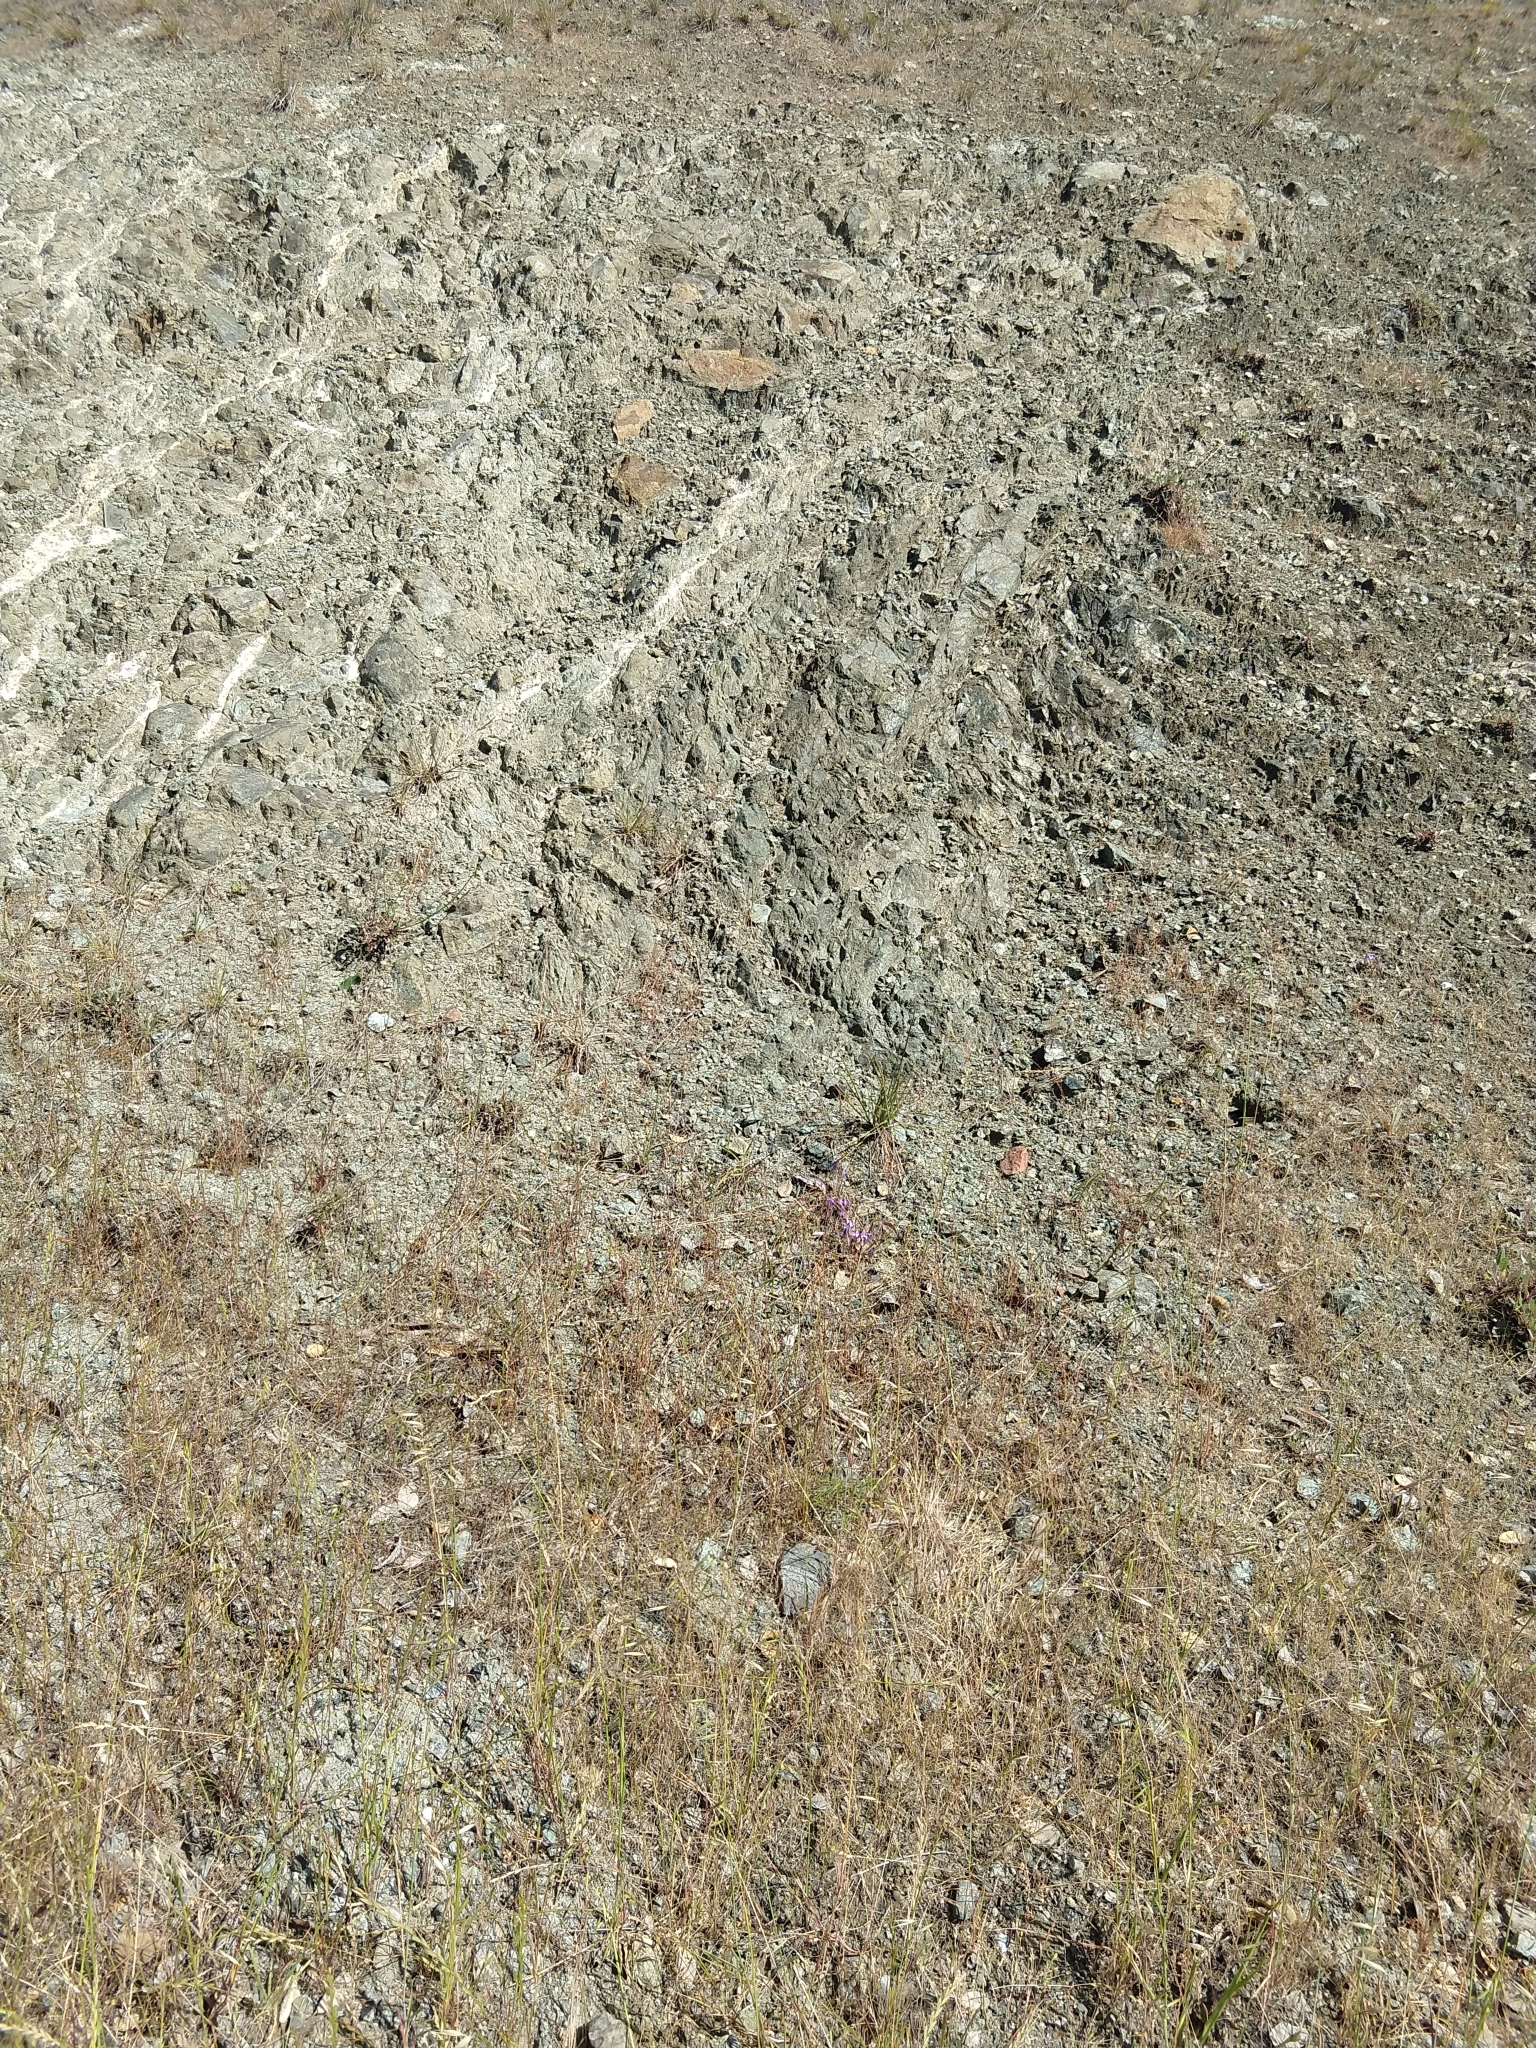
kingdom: Plantae
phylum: Tracheophyta
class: Liliopsida
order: Asparagales
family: Asparagaceae
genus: Brodiaea
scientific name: Brodiaea terrestris
